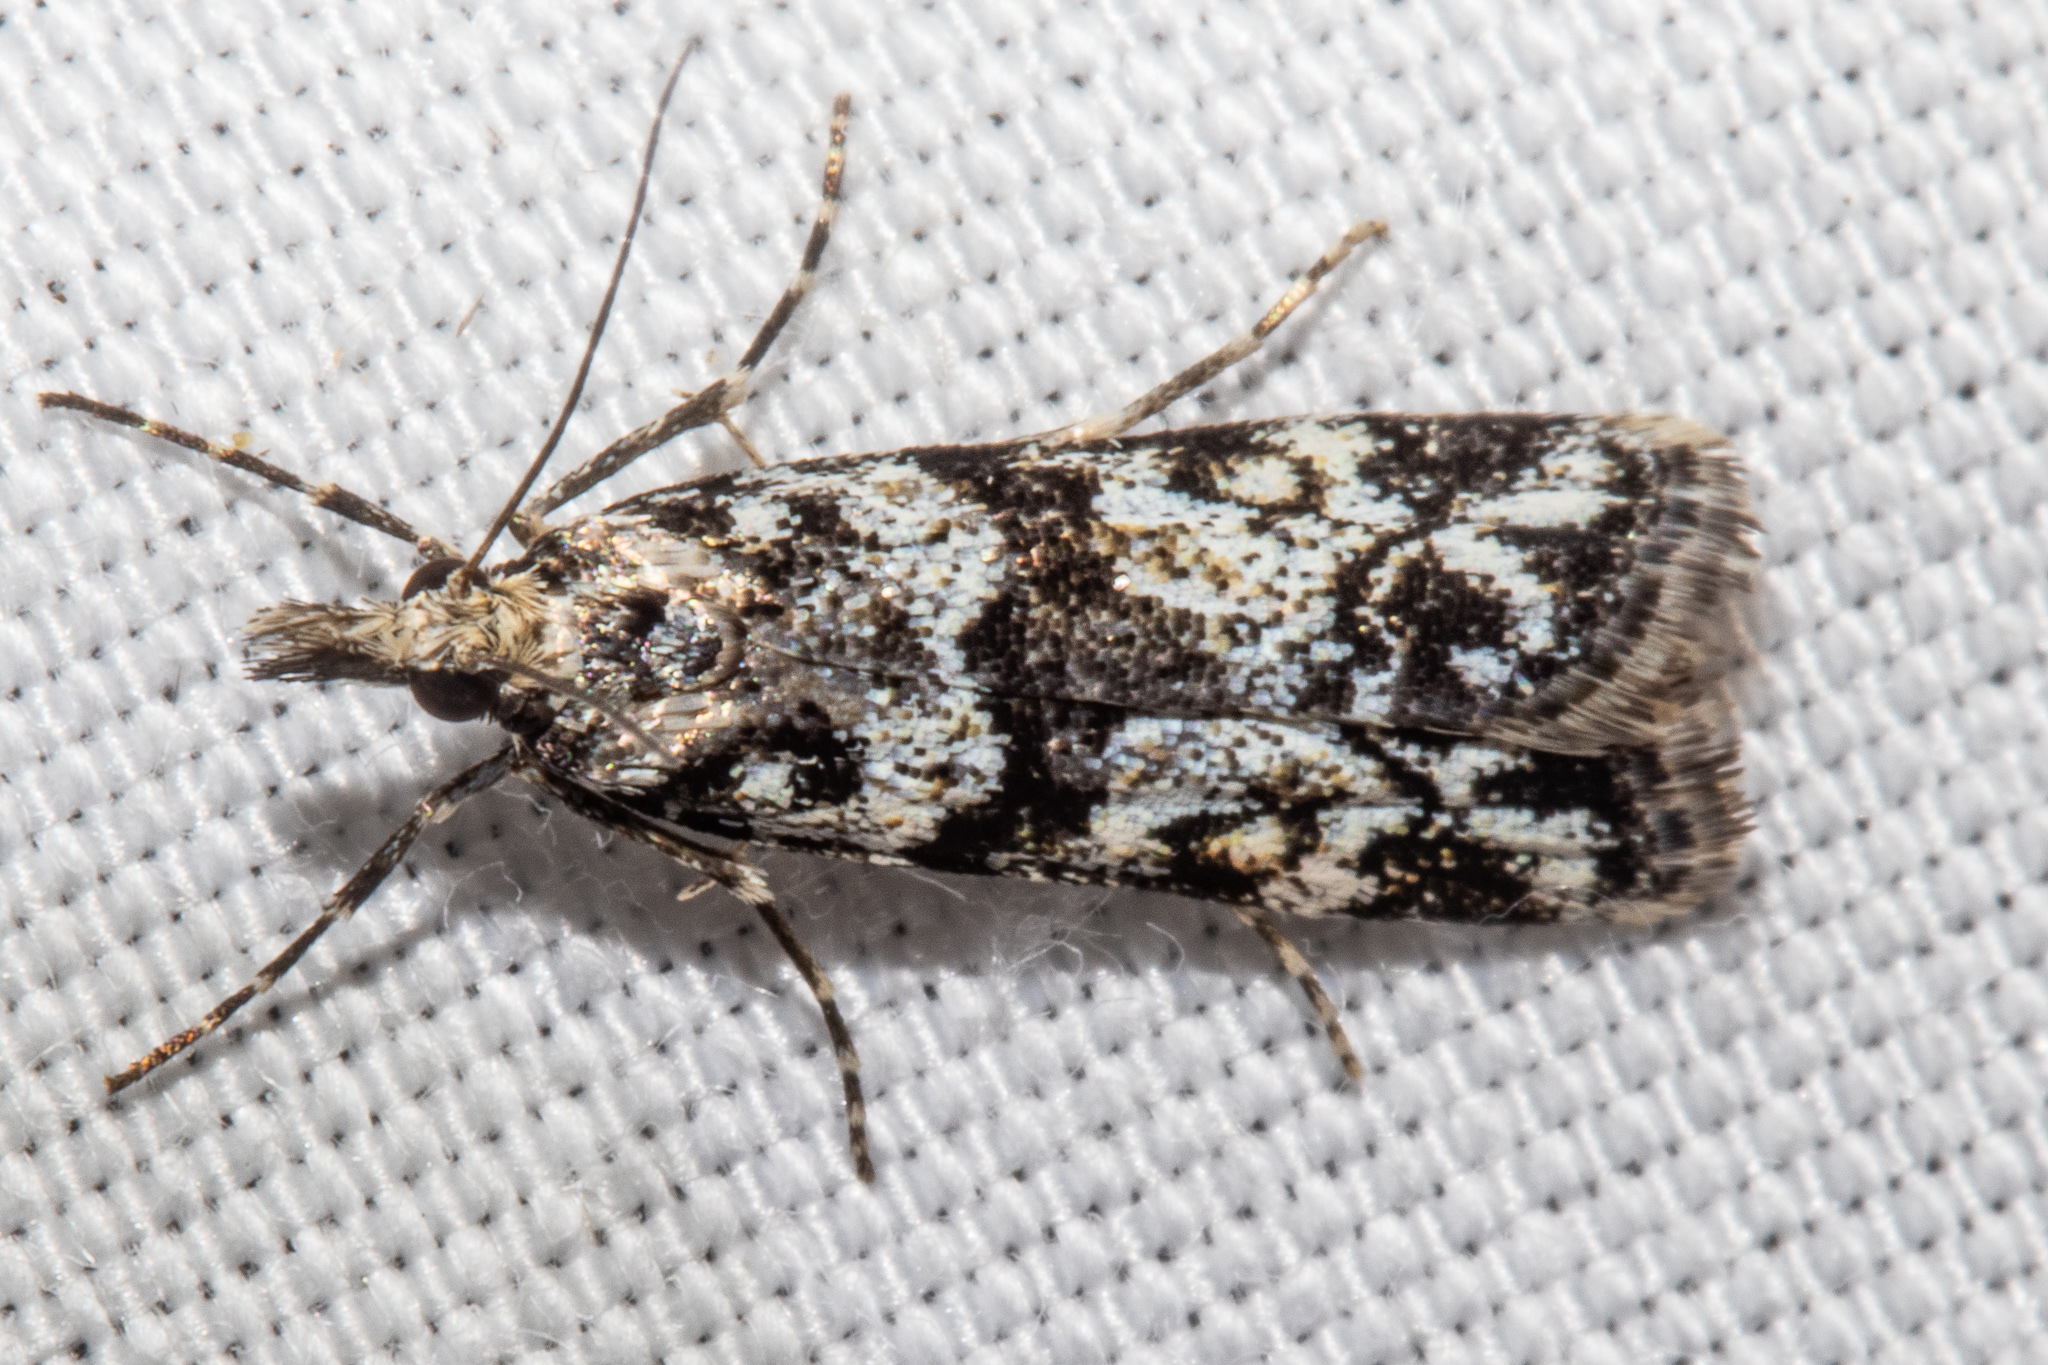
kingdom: Animalia
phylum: Arthropoda
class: Insecta
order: Lepidoptera
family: Crambidae
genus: Eudonia
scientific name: Eudonia torodes
